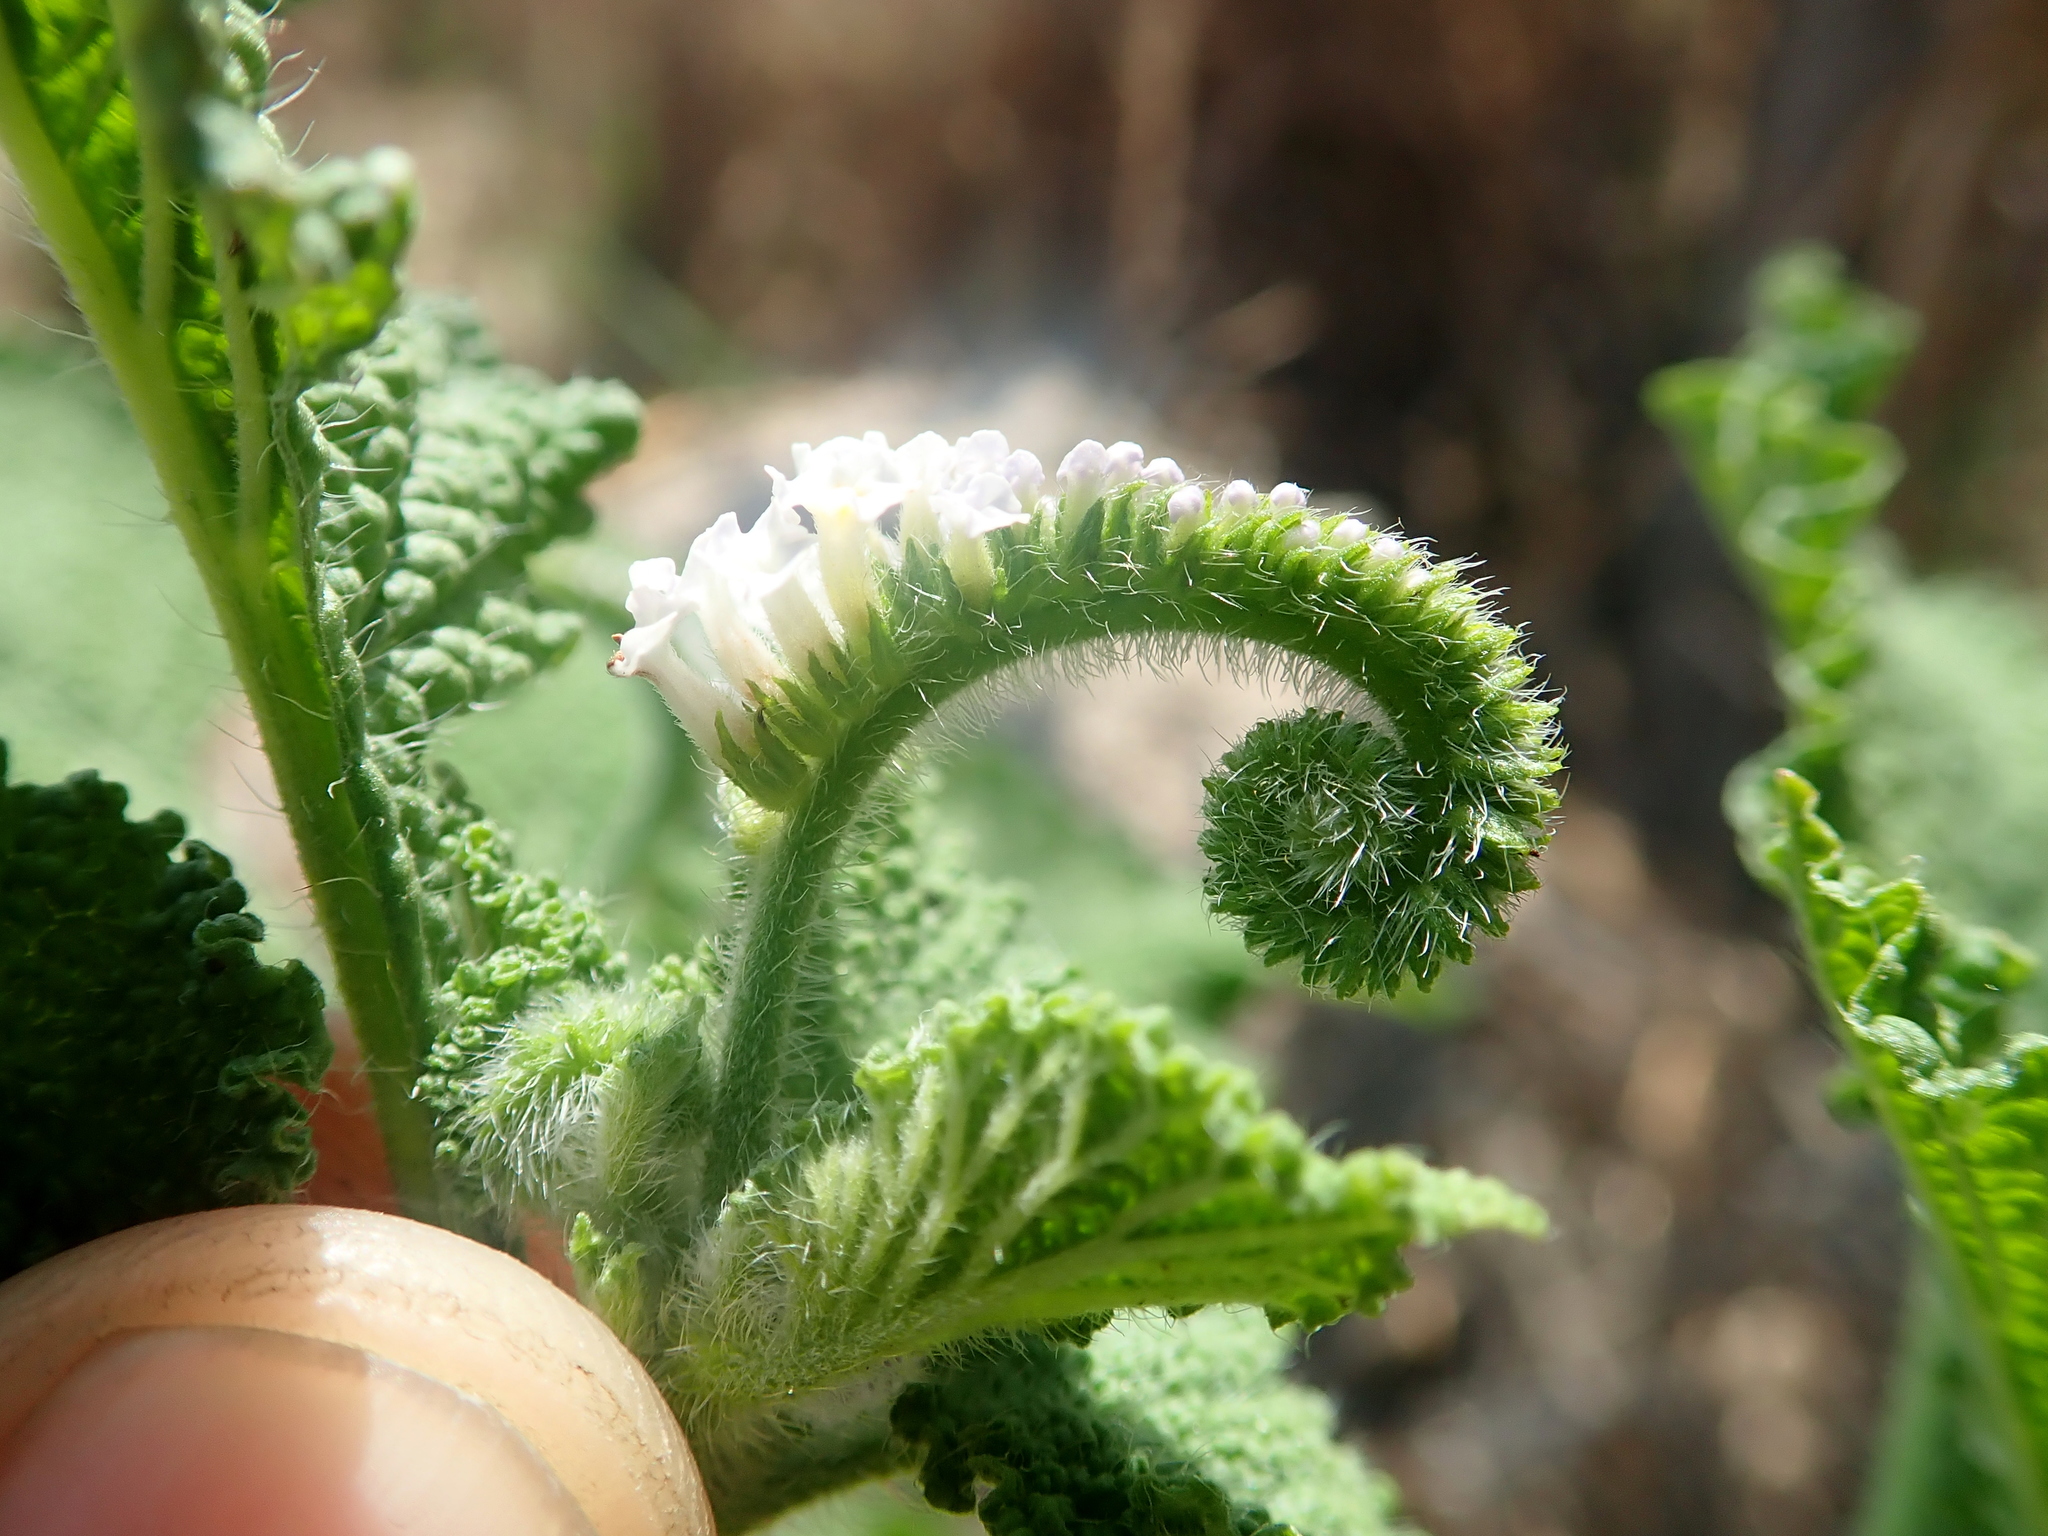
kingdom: Plantae
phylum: Tracheophyta
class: Magnoliopsida
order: Boraginales
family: Heliotropiaceae
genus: Heliotropium
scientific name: Heliotropium indicum
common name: Indian heliotrope
